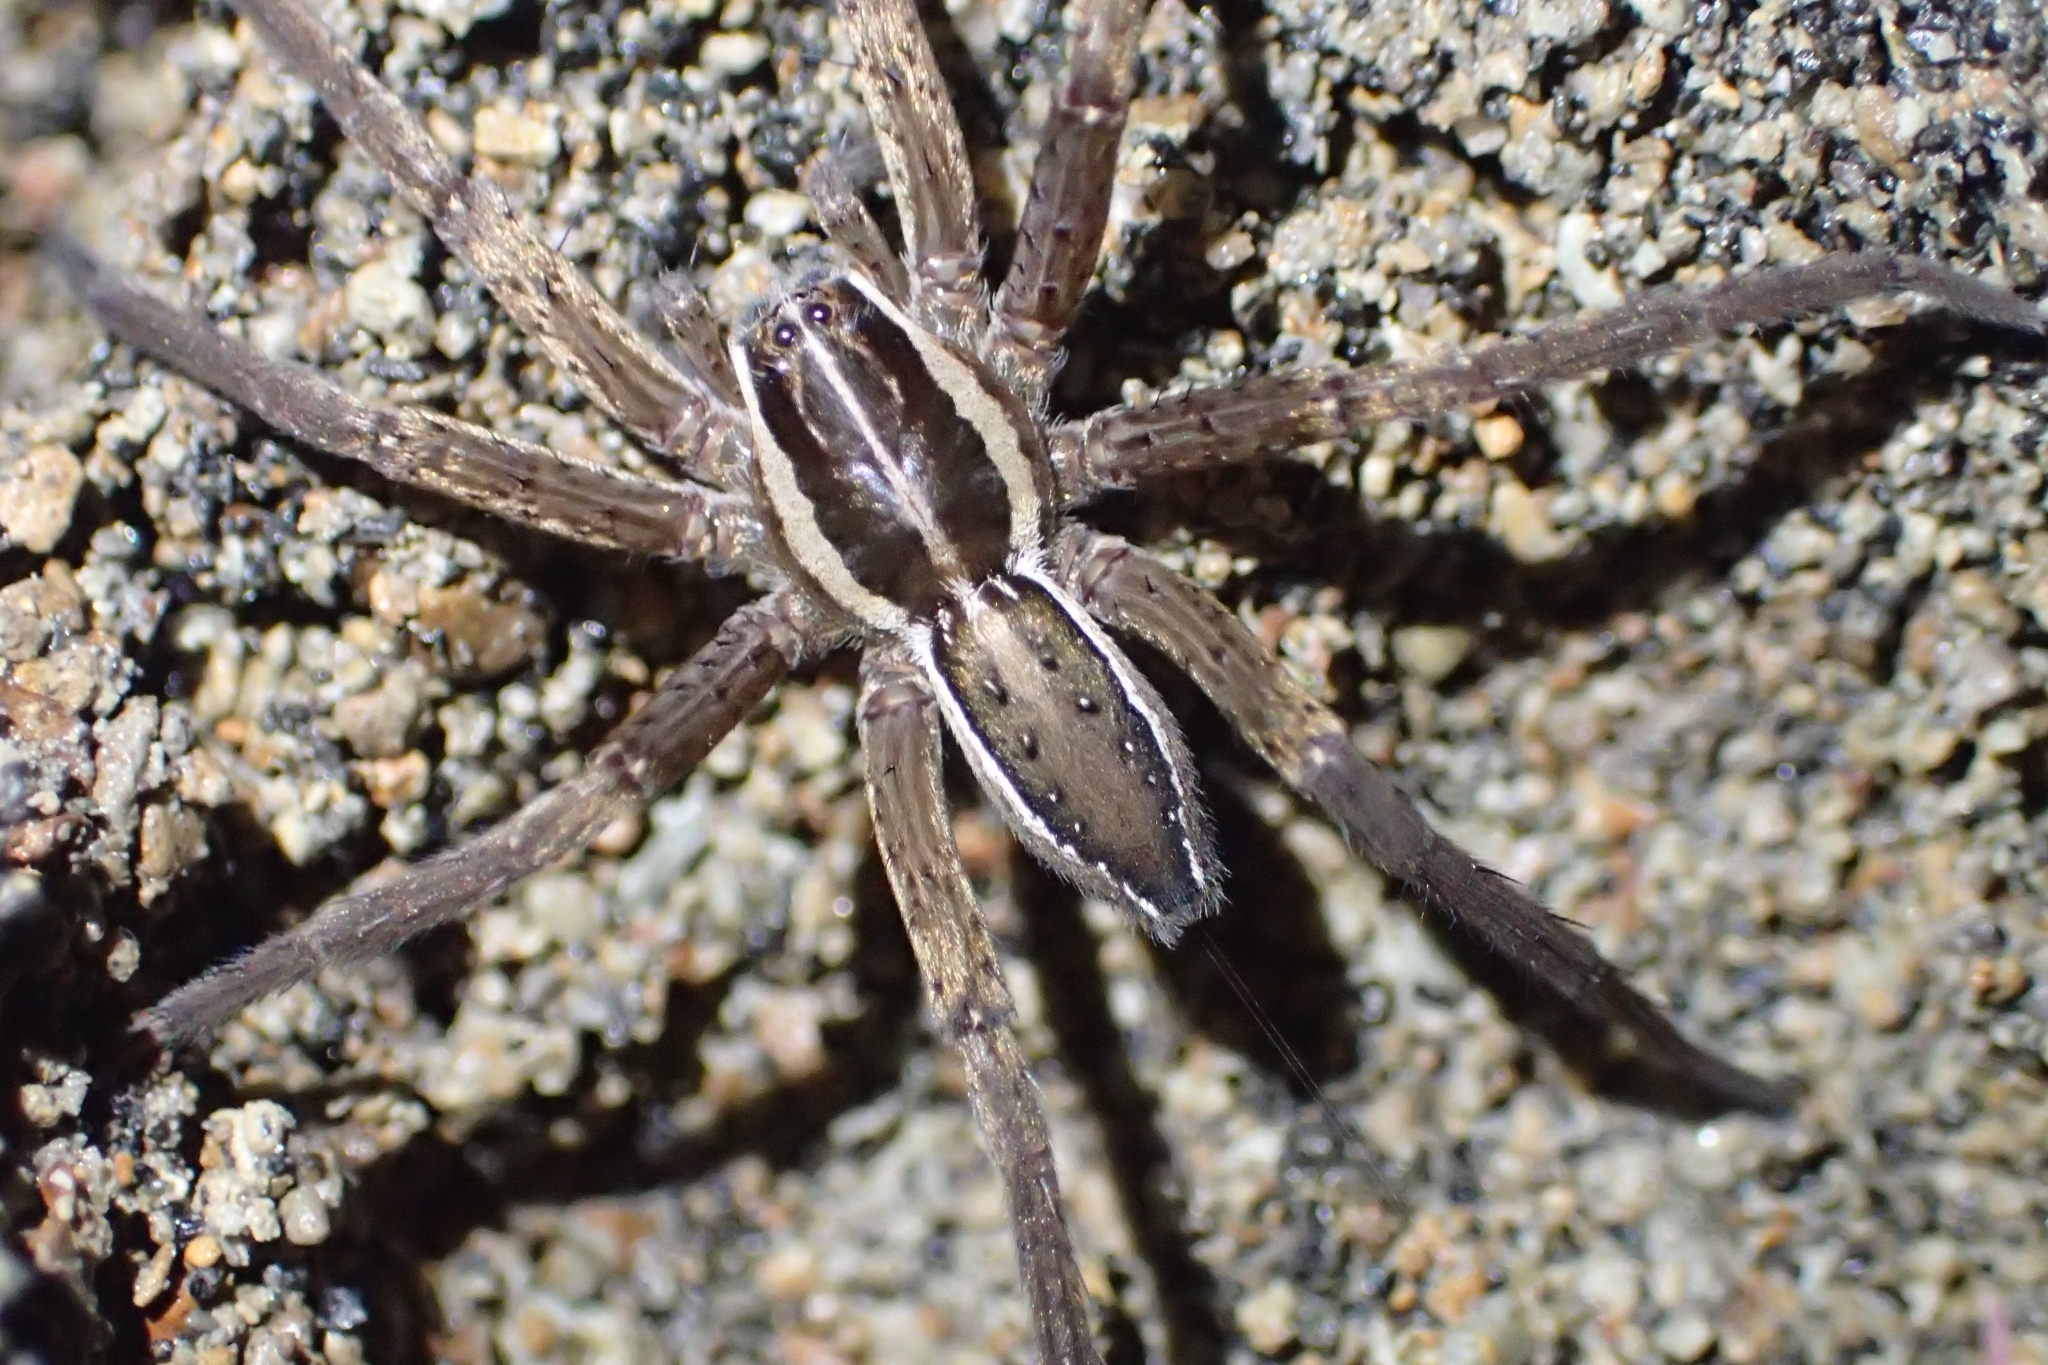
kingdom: Animalia
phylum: Arthropoda
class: Arachnida
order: Araneae
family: Pisauridae
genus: Dolomedes
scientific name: Dolomedes minor
